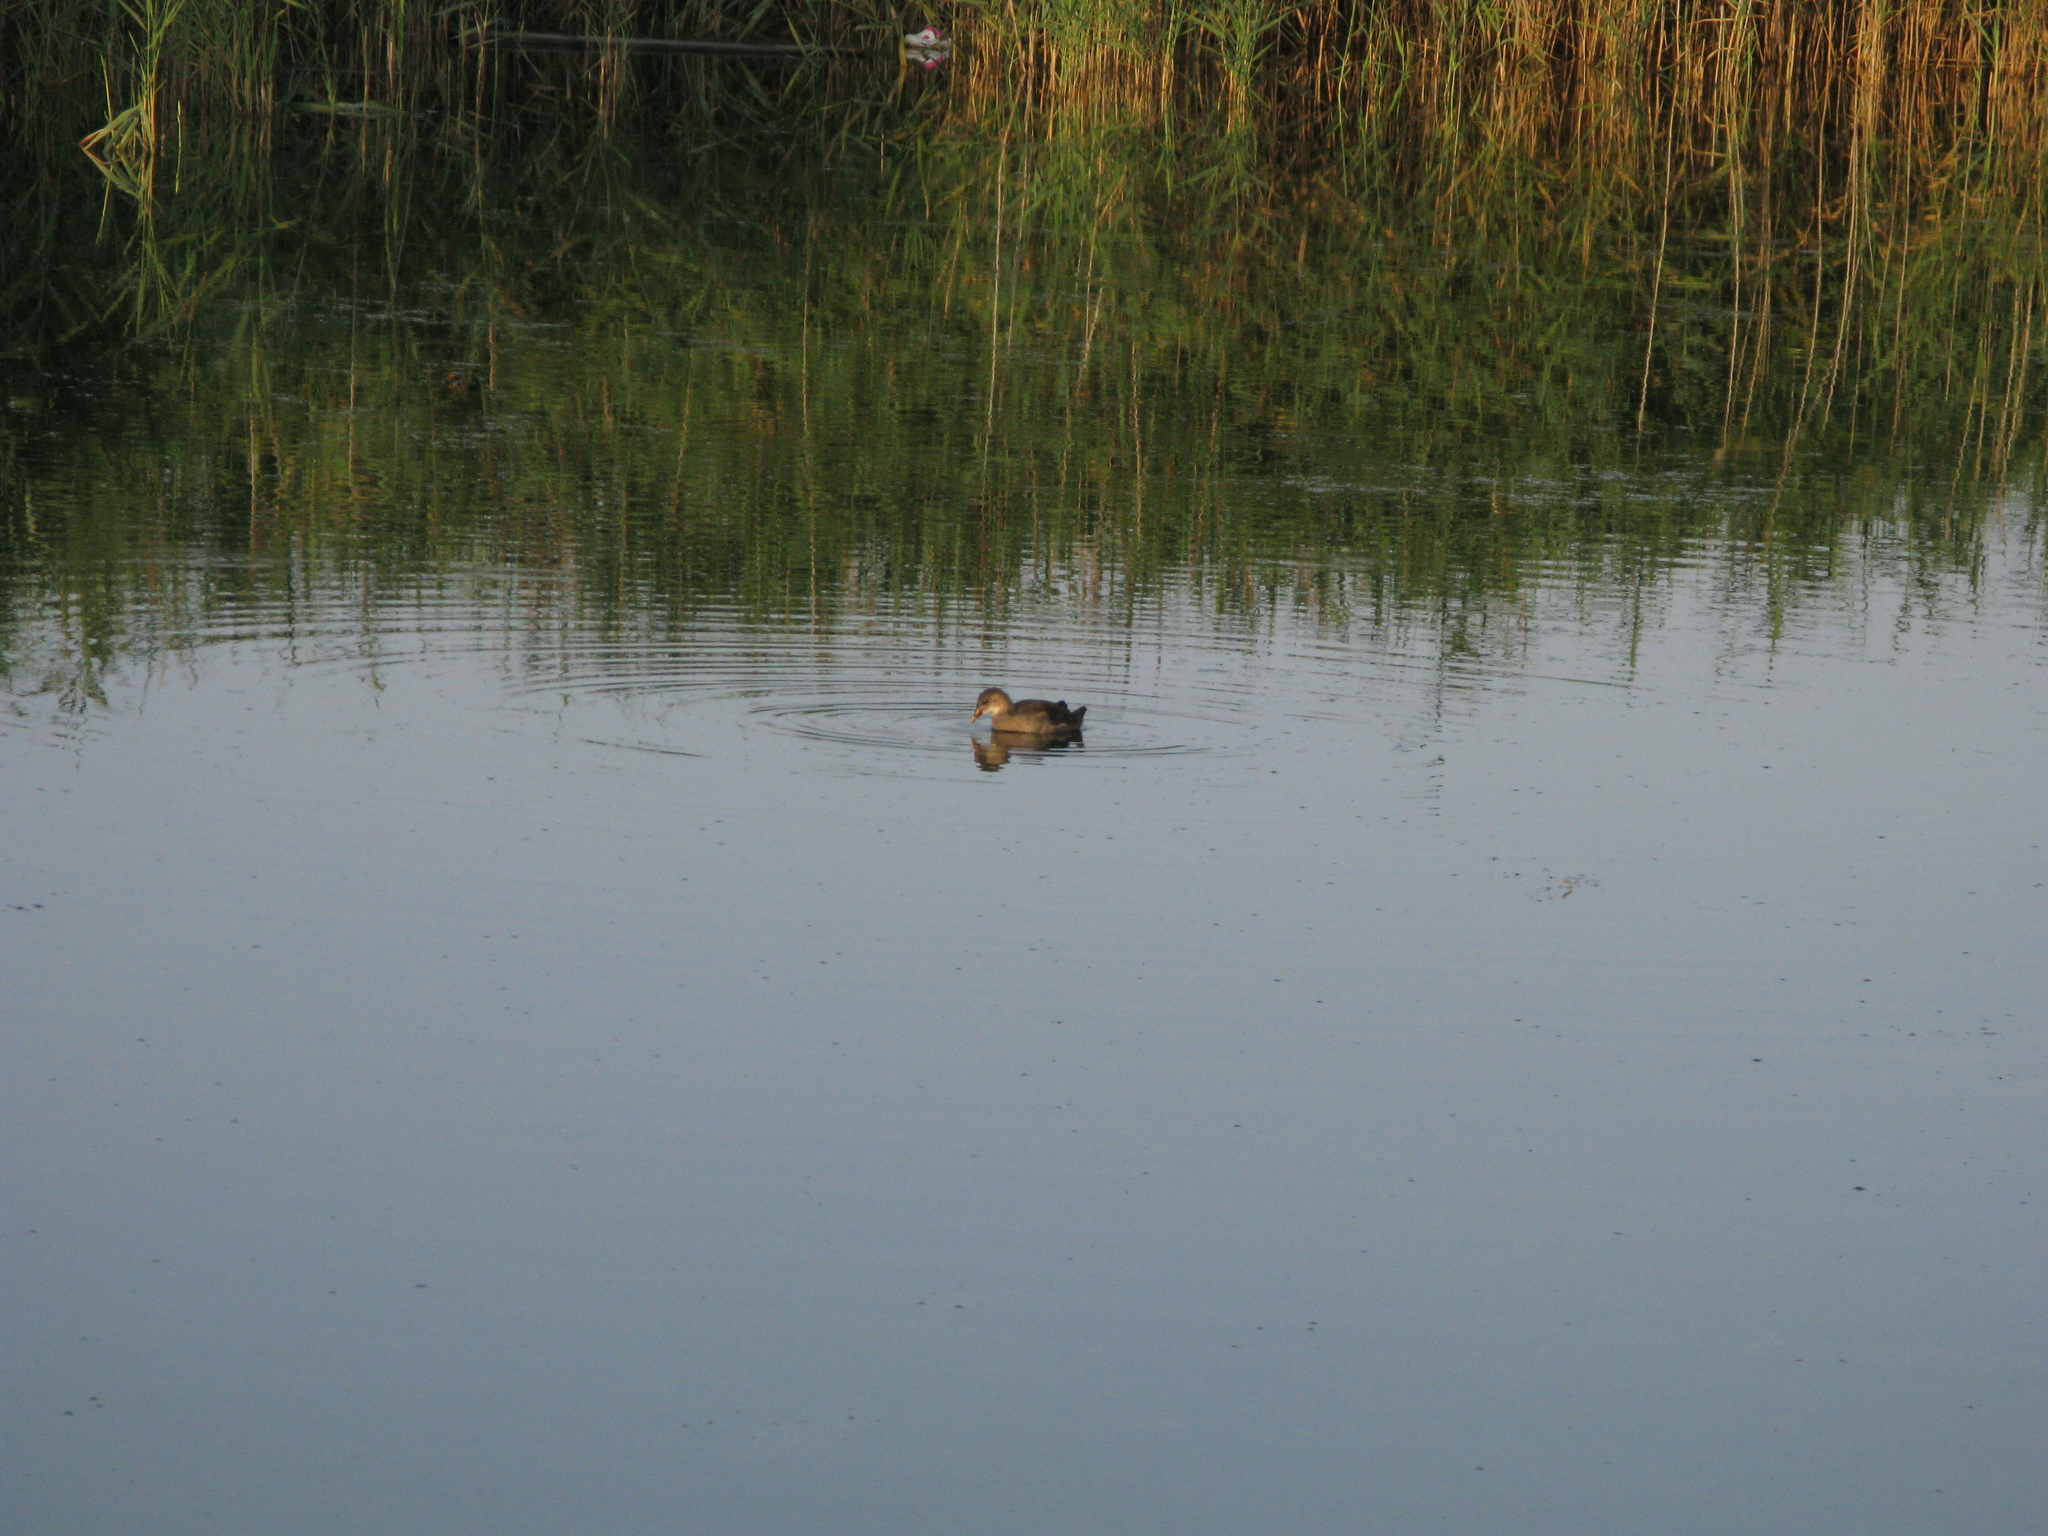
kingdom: Animalia
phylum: Chordata
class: Aves
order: Gruiformes
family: Rallidae
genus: Gallinula
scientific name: Gallinula chloropus
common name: Common moorhen
